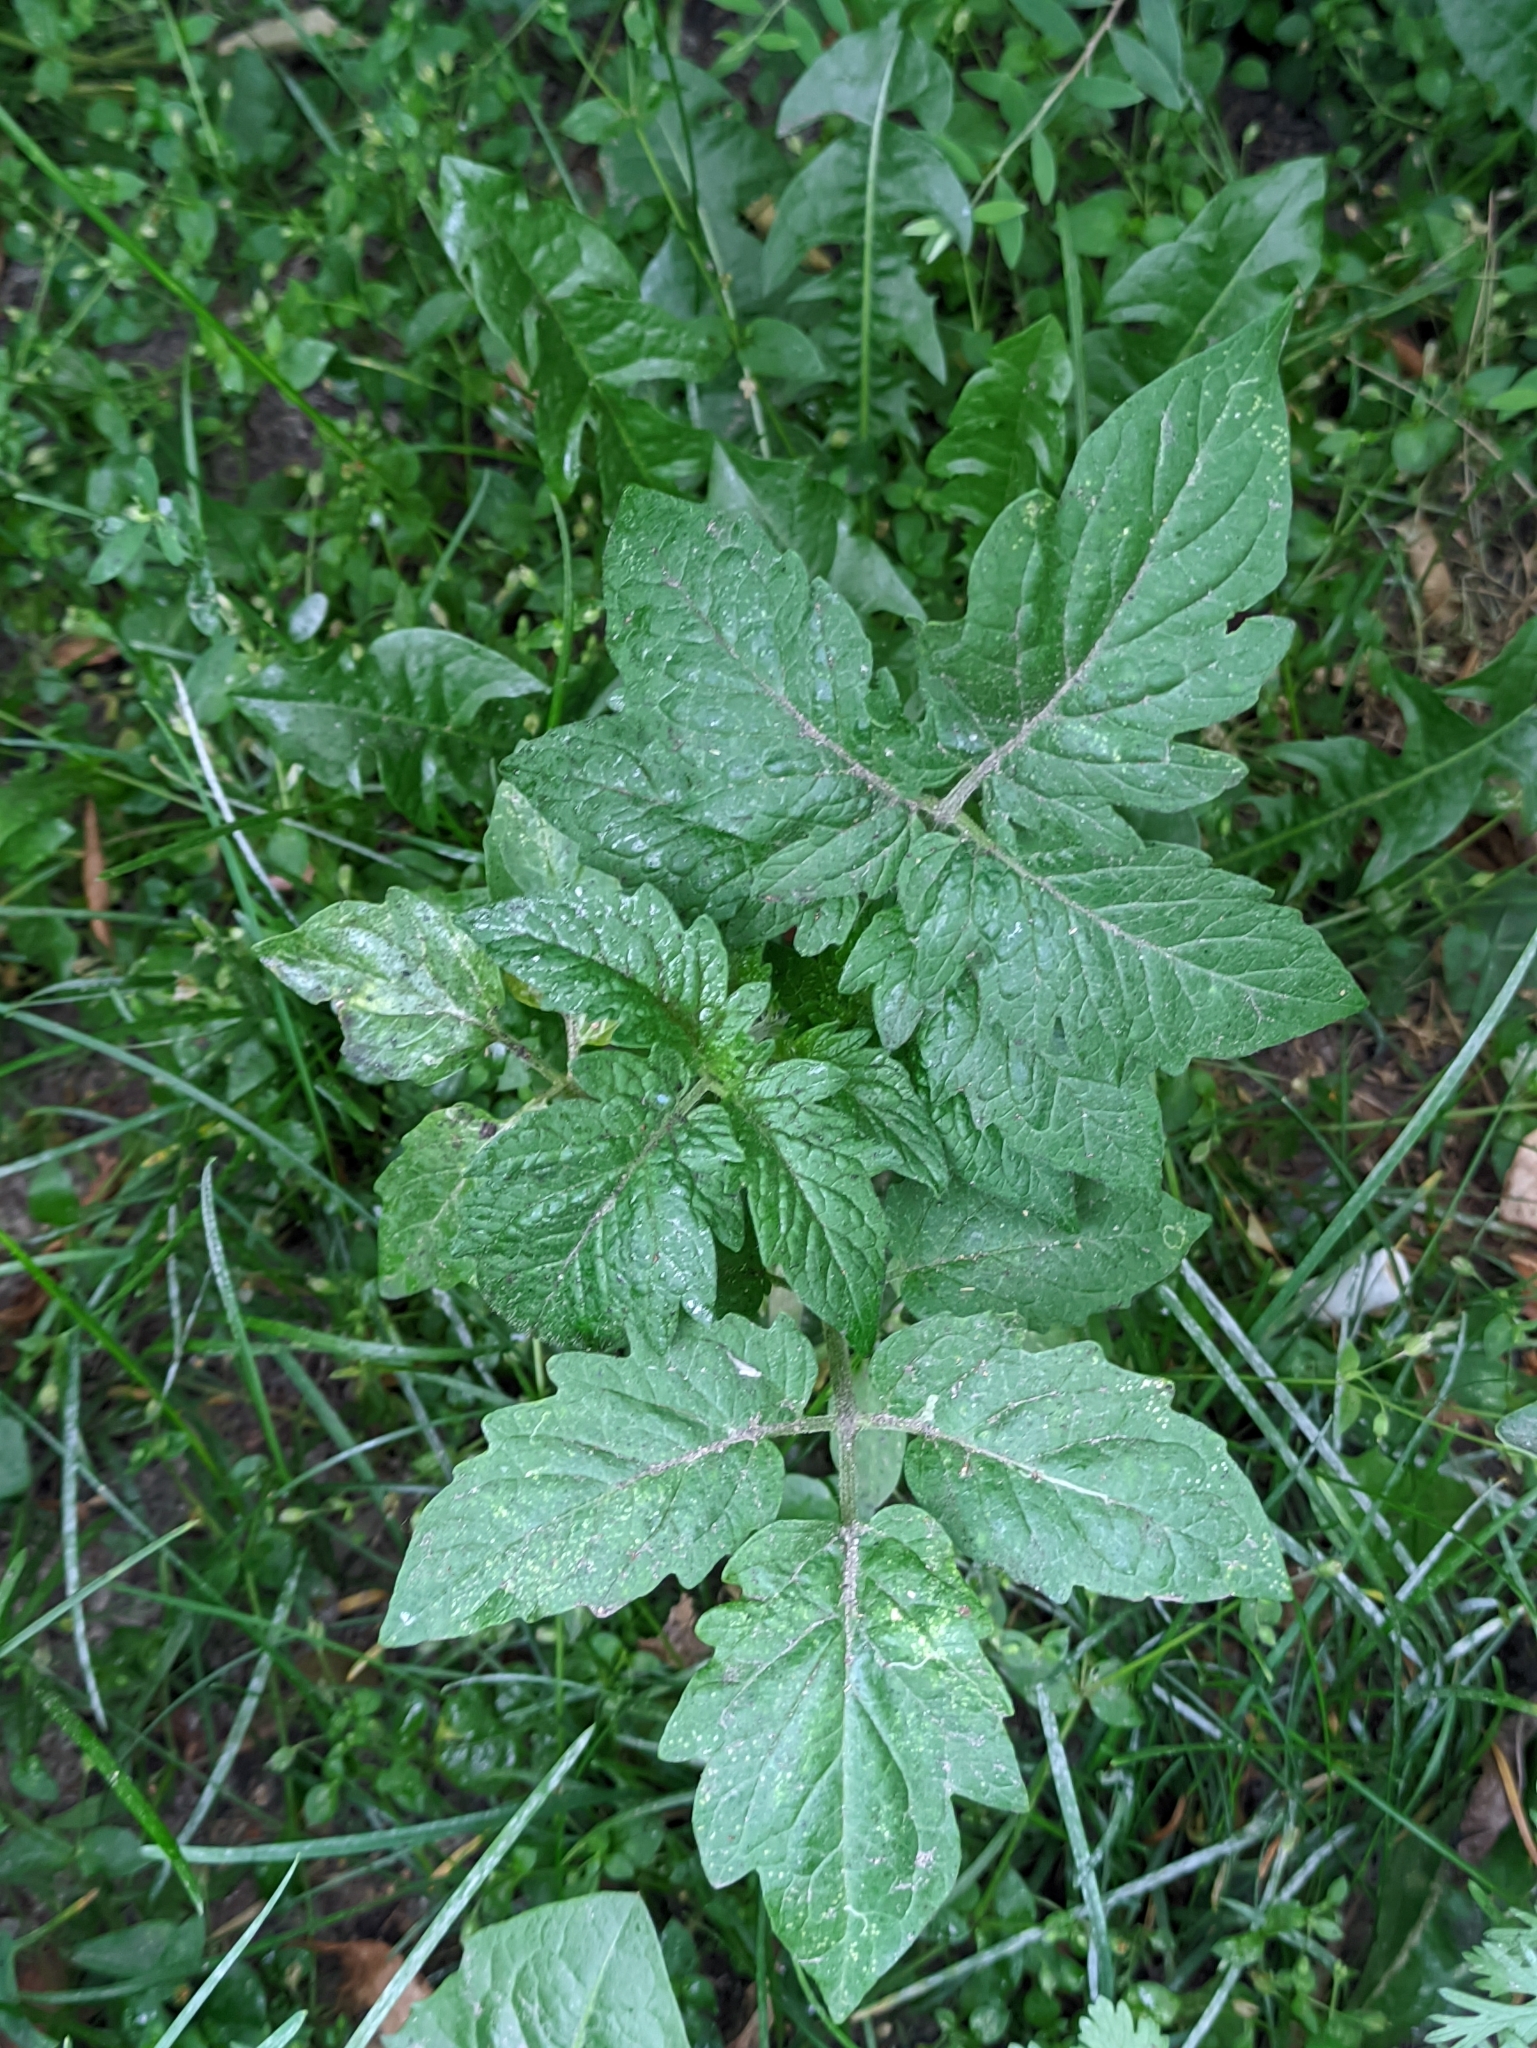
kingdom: Plantae
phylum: Tracheophyta
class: Magnoliopsida
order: Solanales
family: Solanaceae
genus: Solanum
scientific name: Solanum lycopersicum
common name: Garden tomato
